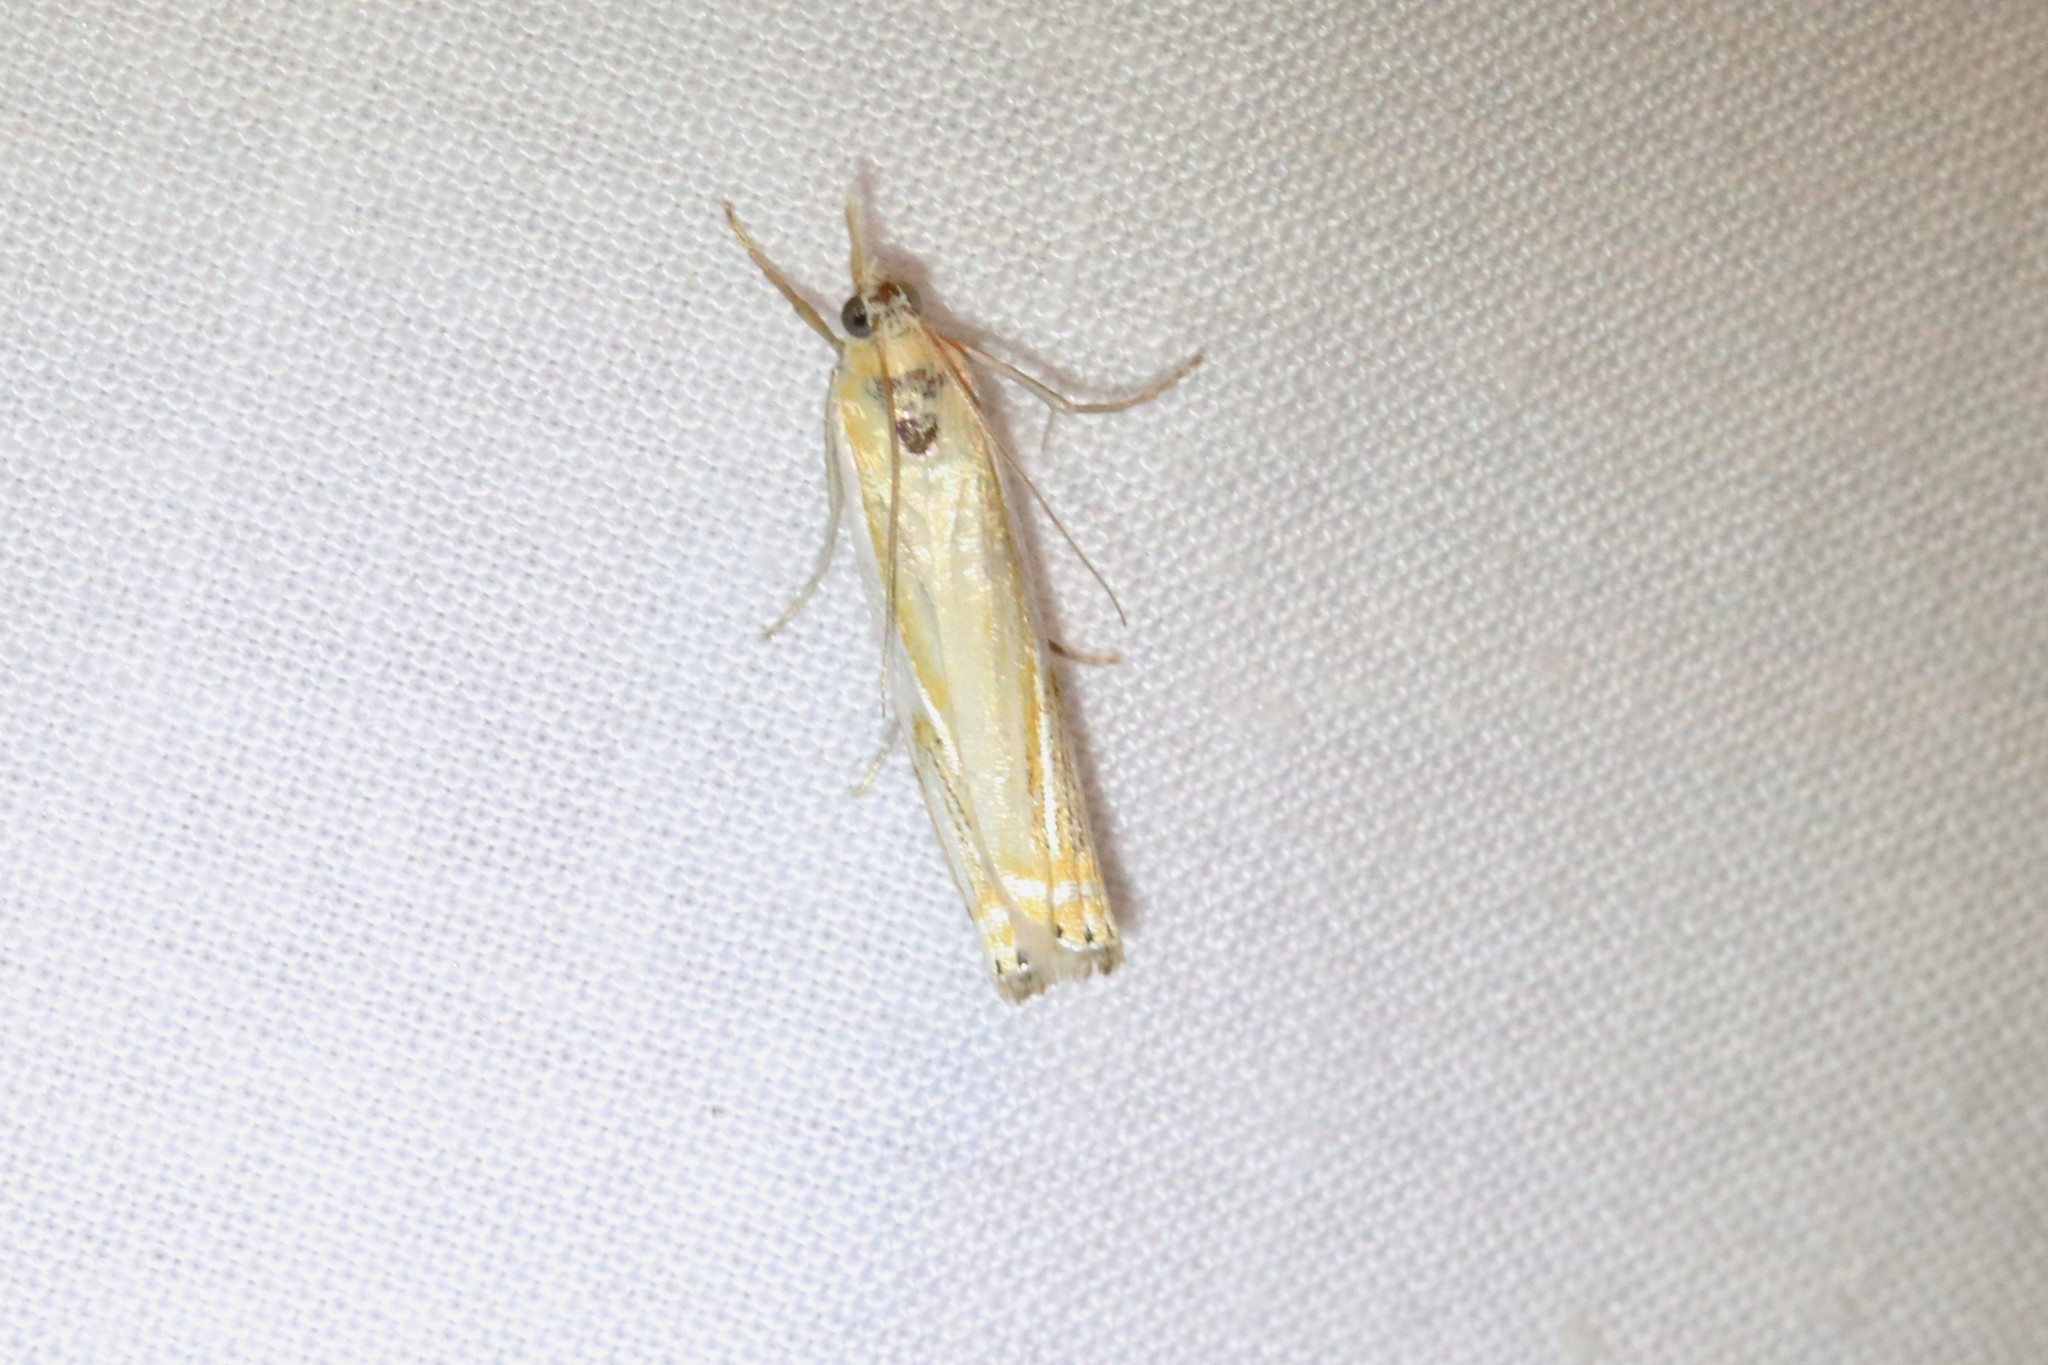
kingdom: Animalia
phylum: Arthropoda
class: Insecta
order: Lepidoptera
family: Crambidae
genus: Crambus
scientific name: Crambus agitatellus
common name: Double-banded grass-veneer
